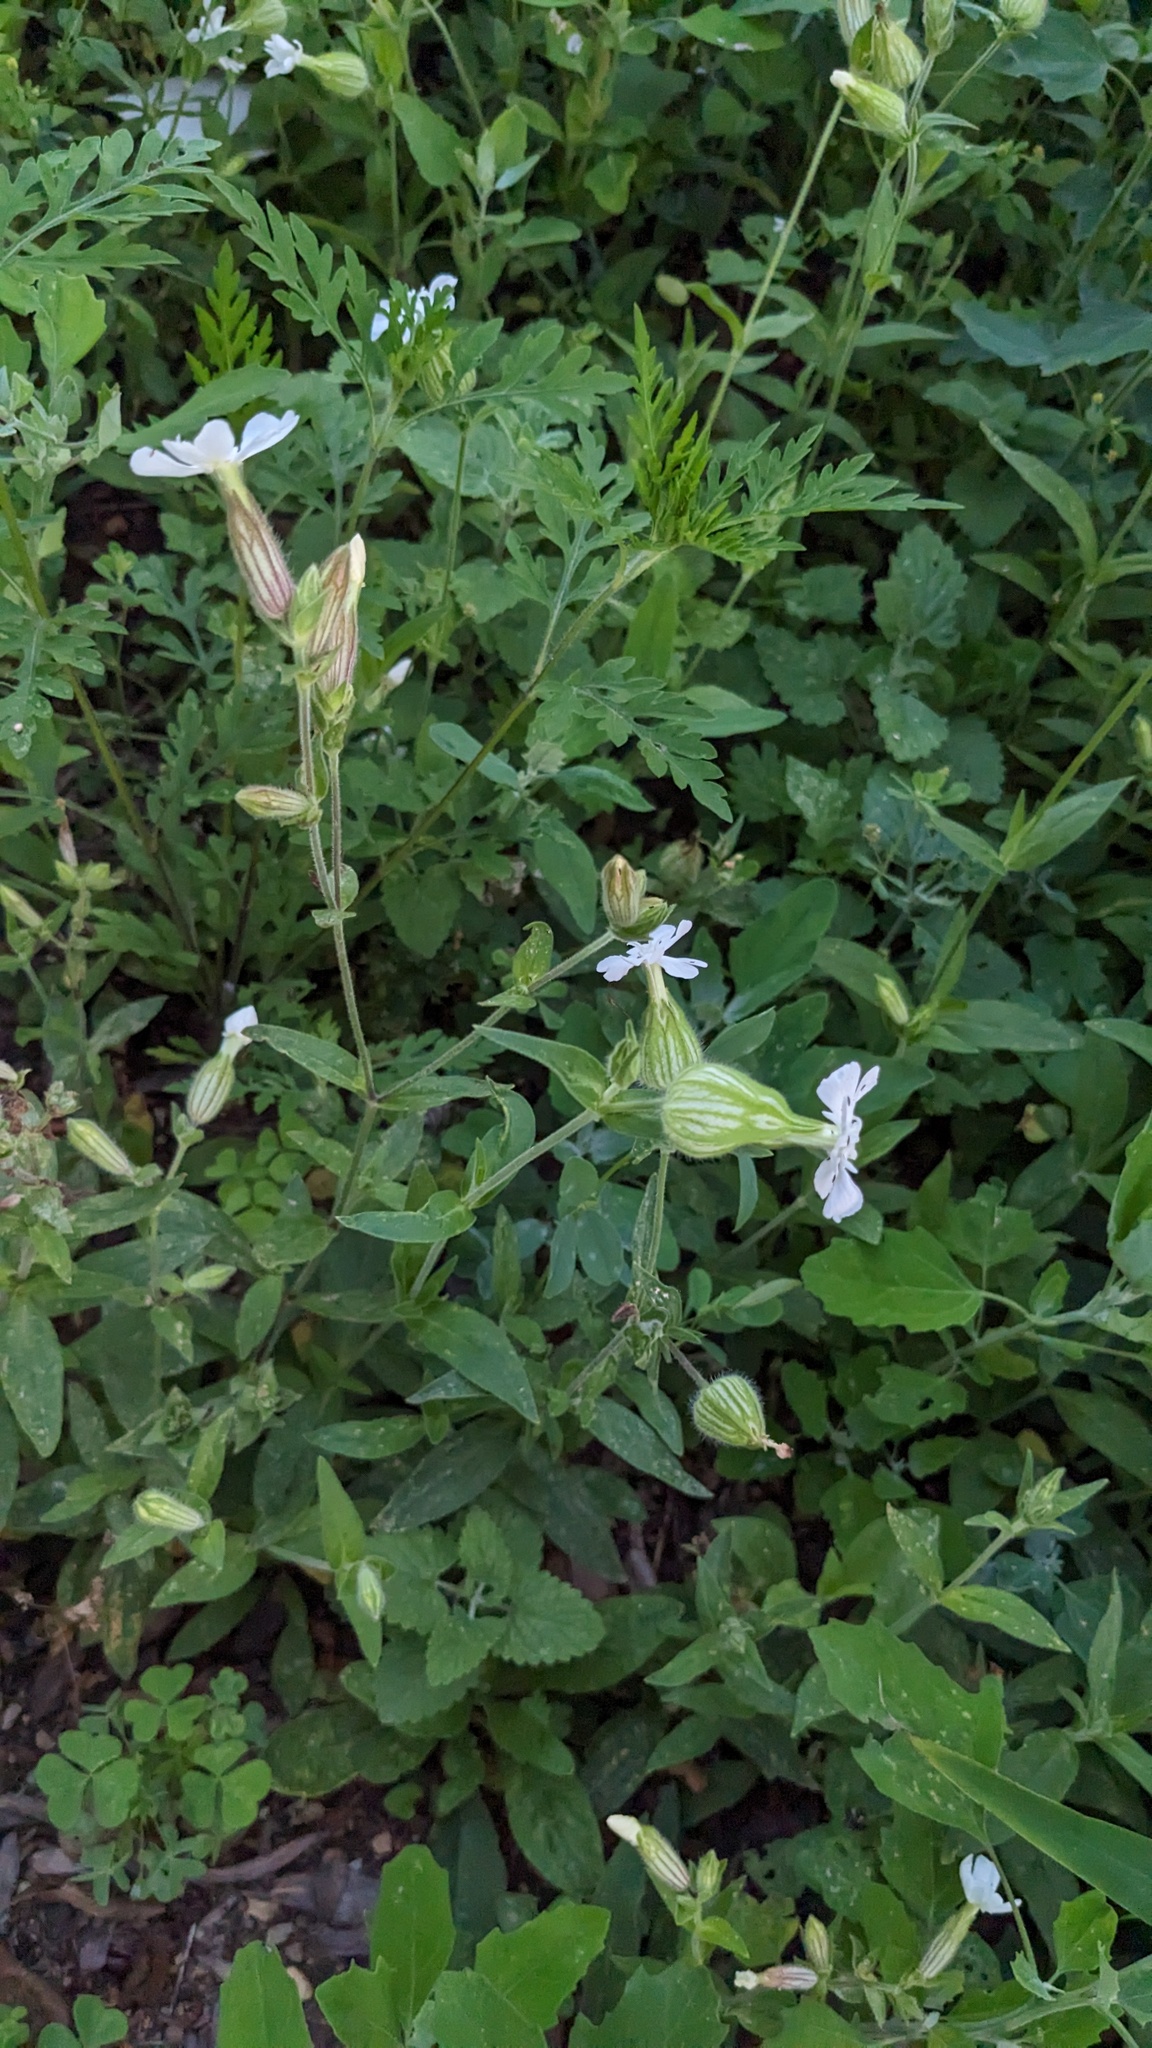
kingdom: Plantae
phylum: Tracheophyta
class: Magnoliopsida
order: Caryophyllales
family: Caryophyllaceae
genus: Silene
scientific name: Silene latifolia
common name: White campion
